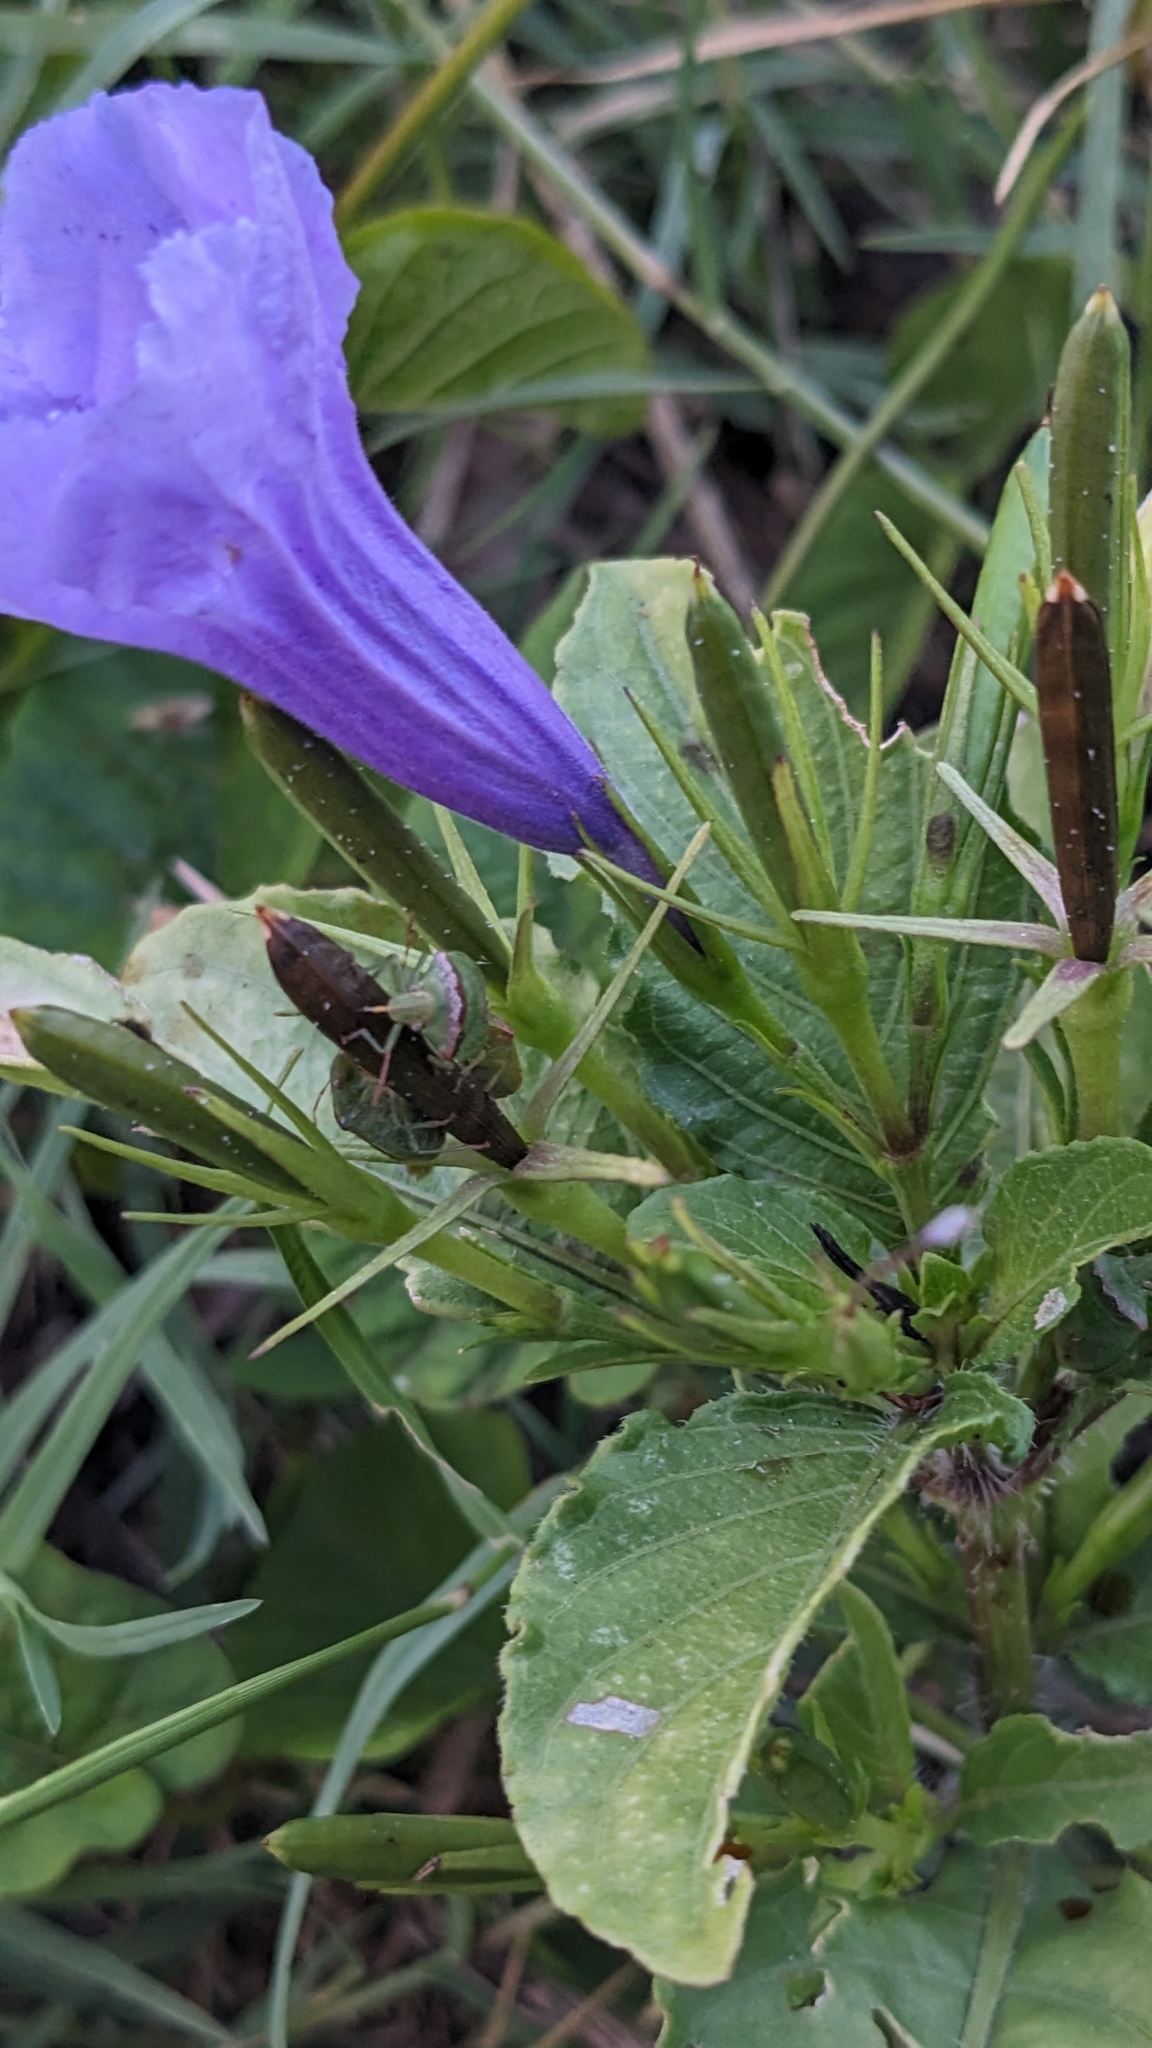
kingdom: Plantae
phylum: Tracheophyta
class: Magnoliopsida
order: Lamiales
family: Acanthaceae
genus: Ruellia
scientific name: Ruellia tuberosa
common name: Devil's bit
